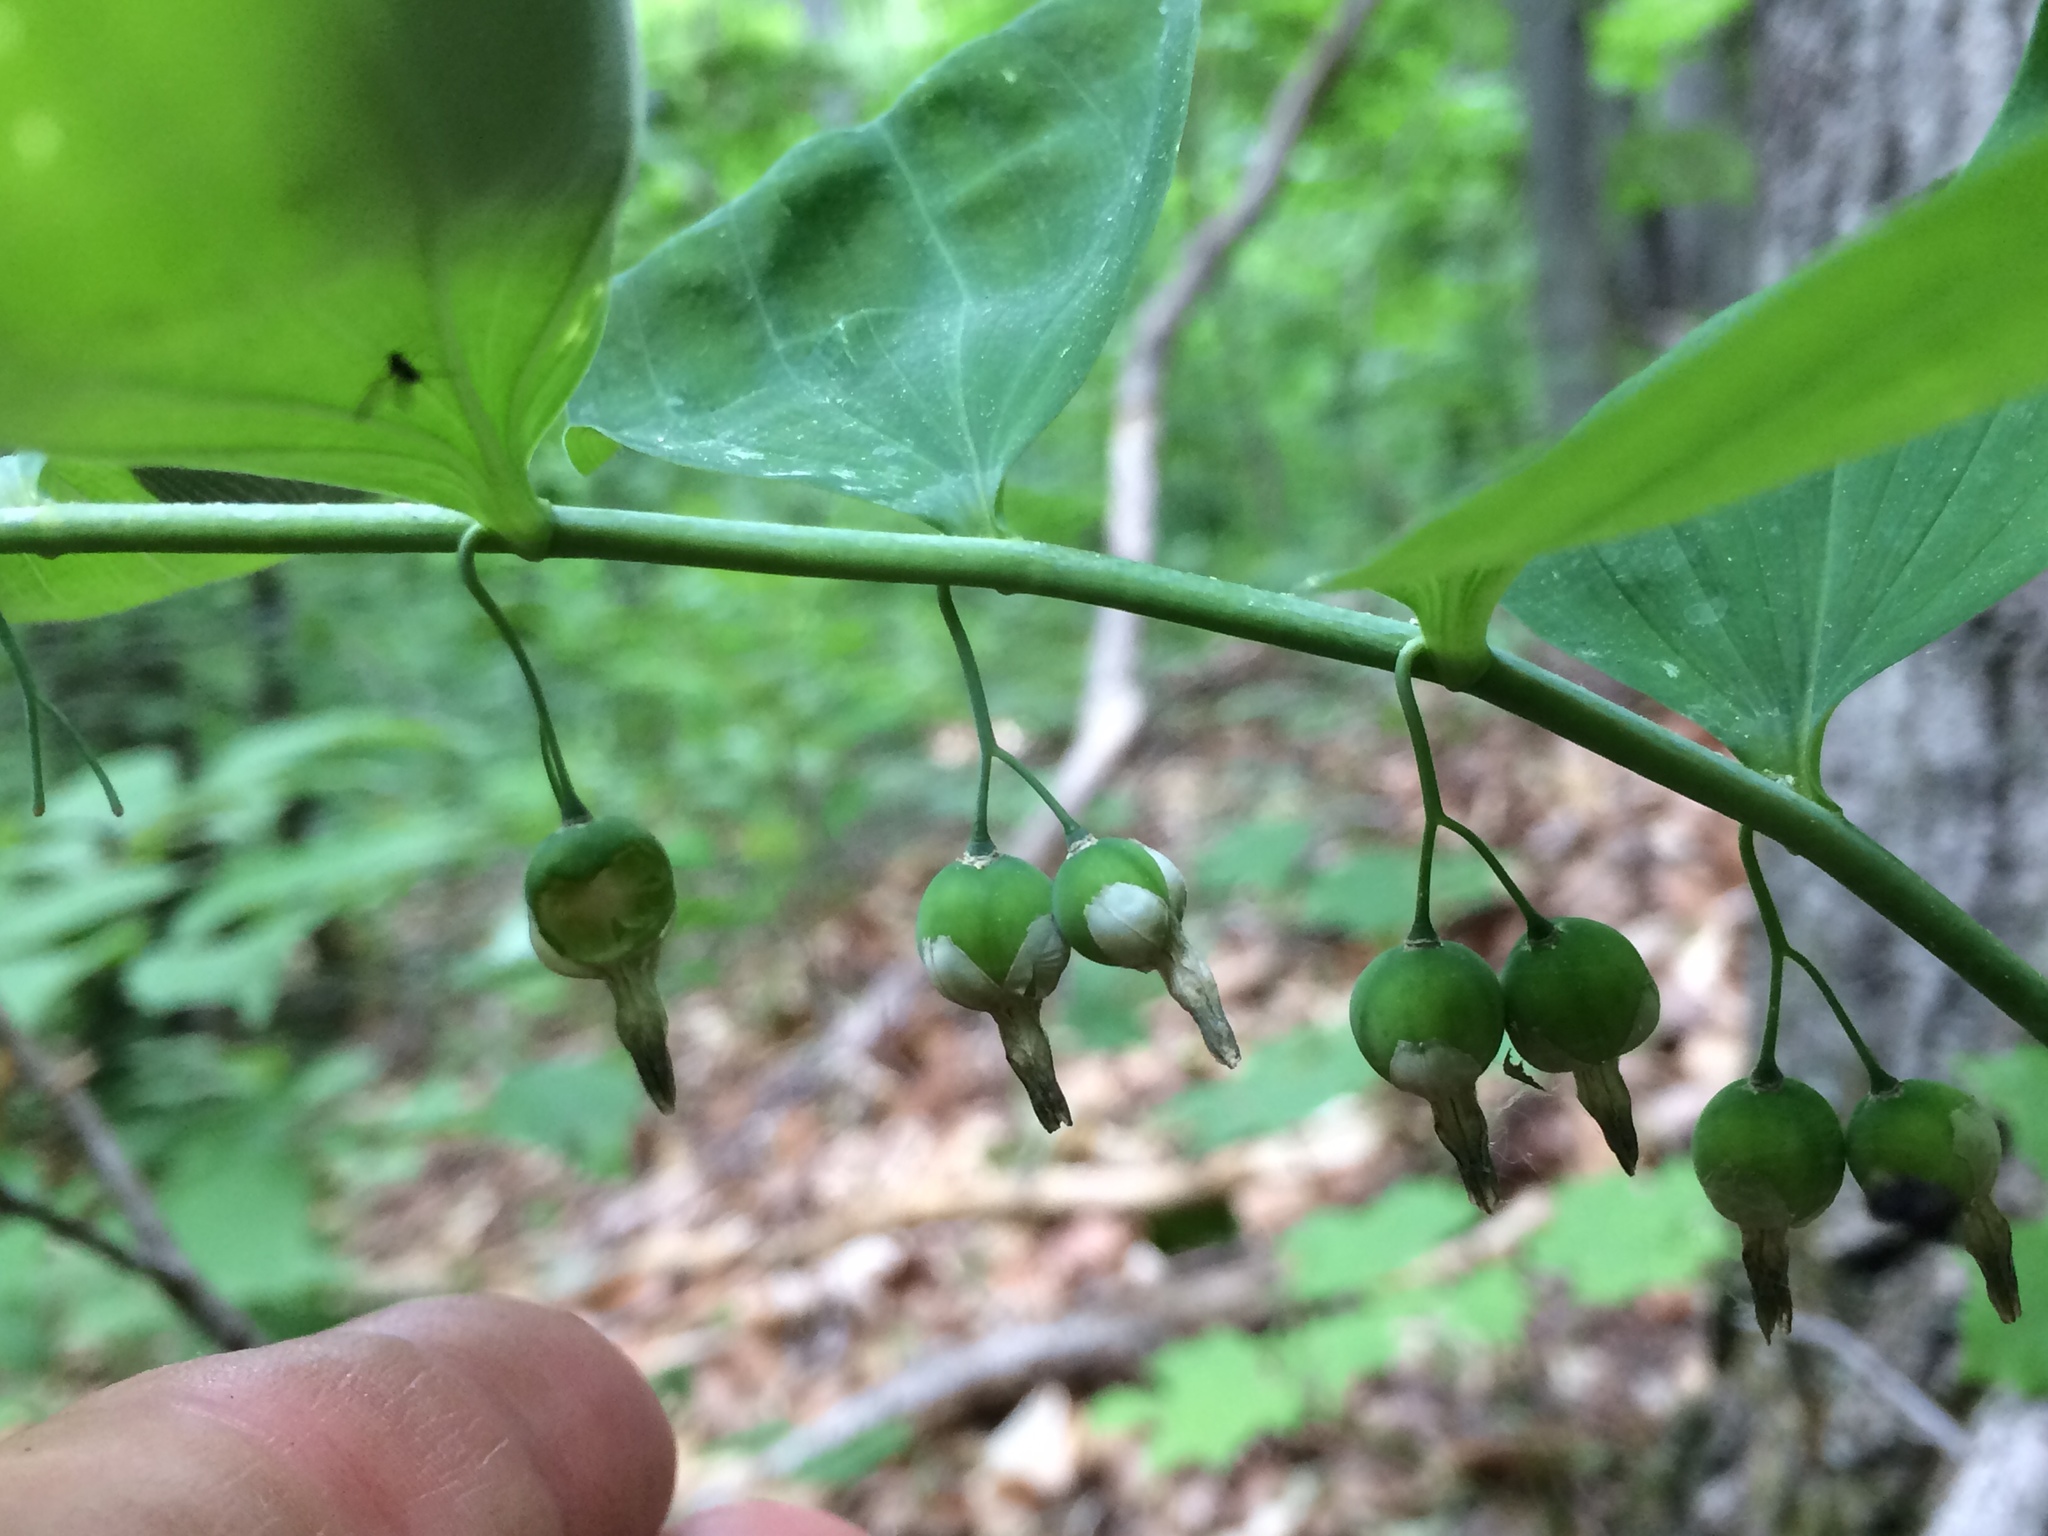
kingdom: Plantae
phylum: Tracheophyta
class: Liliopsida
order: Asparagales
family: Asparagaceae
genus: Polygonatum
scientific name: Polygonatum pubescens
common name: Downy solomon's seal
